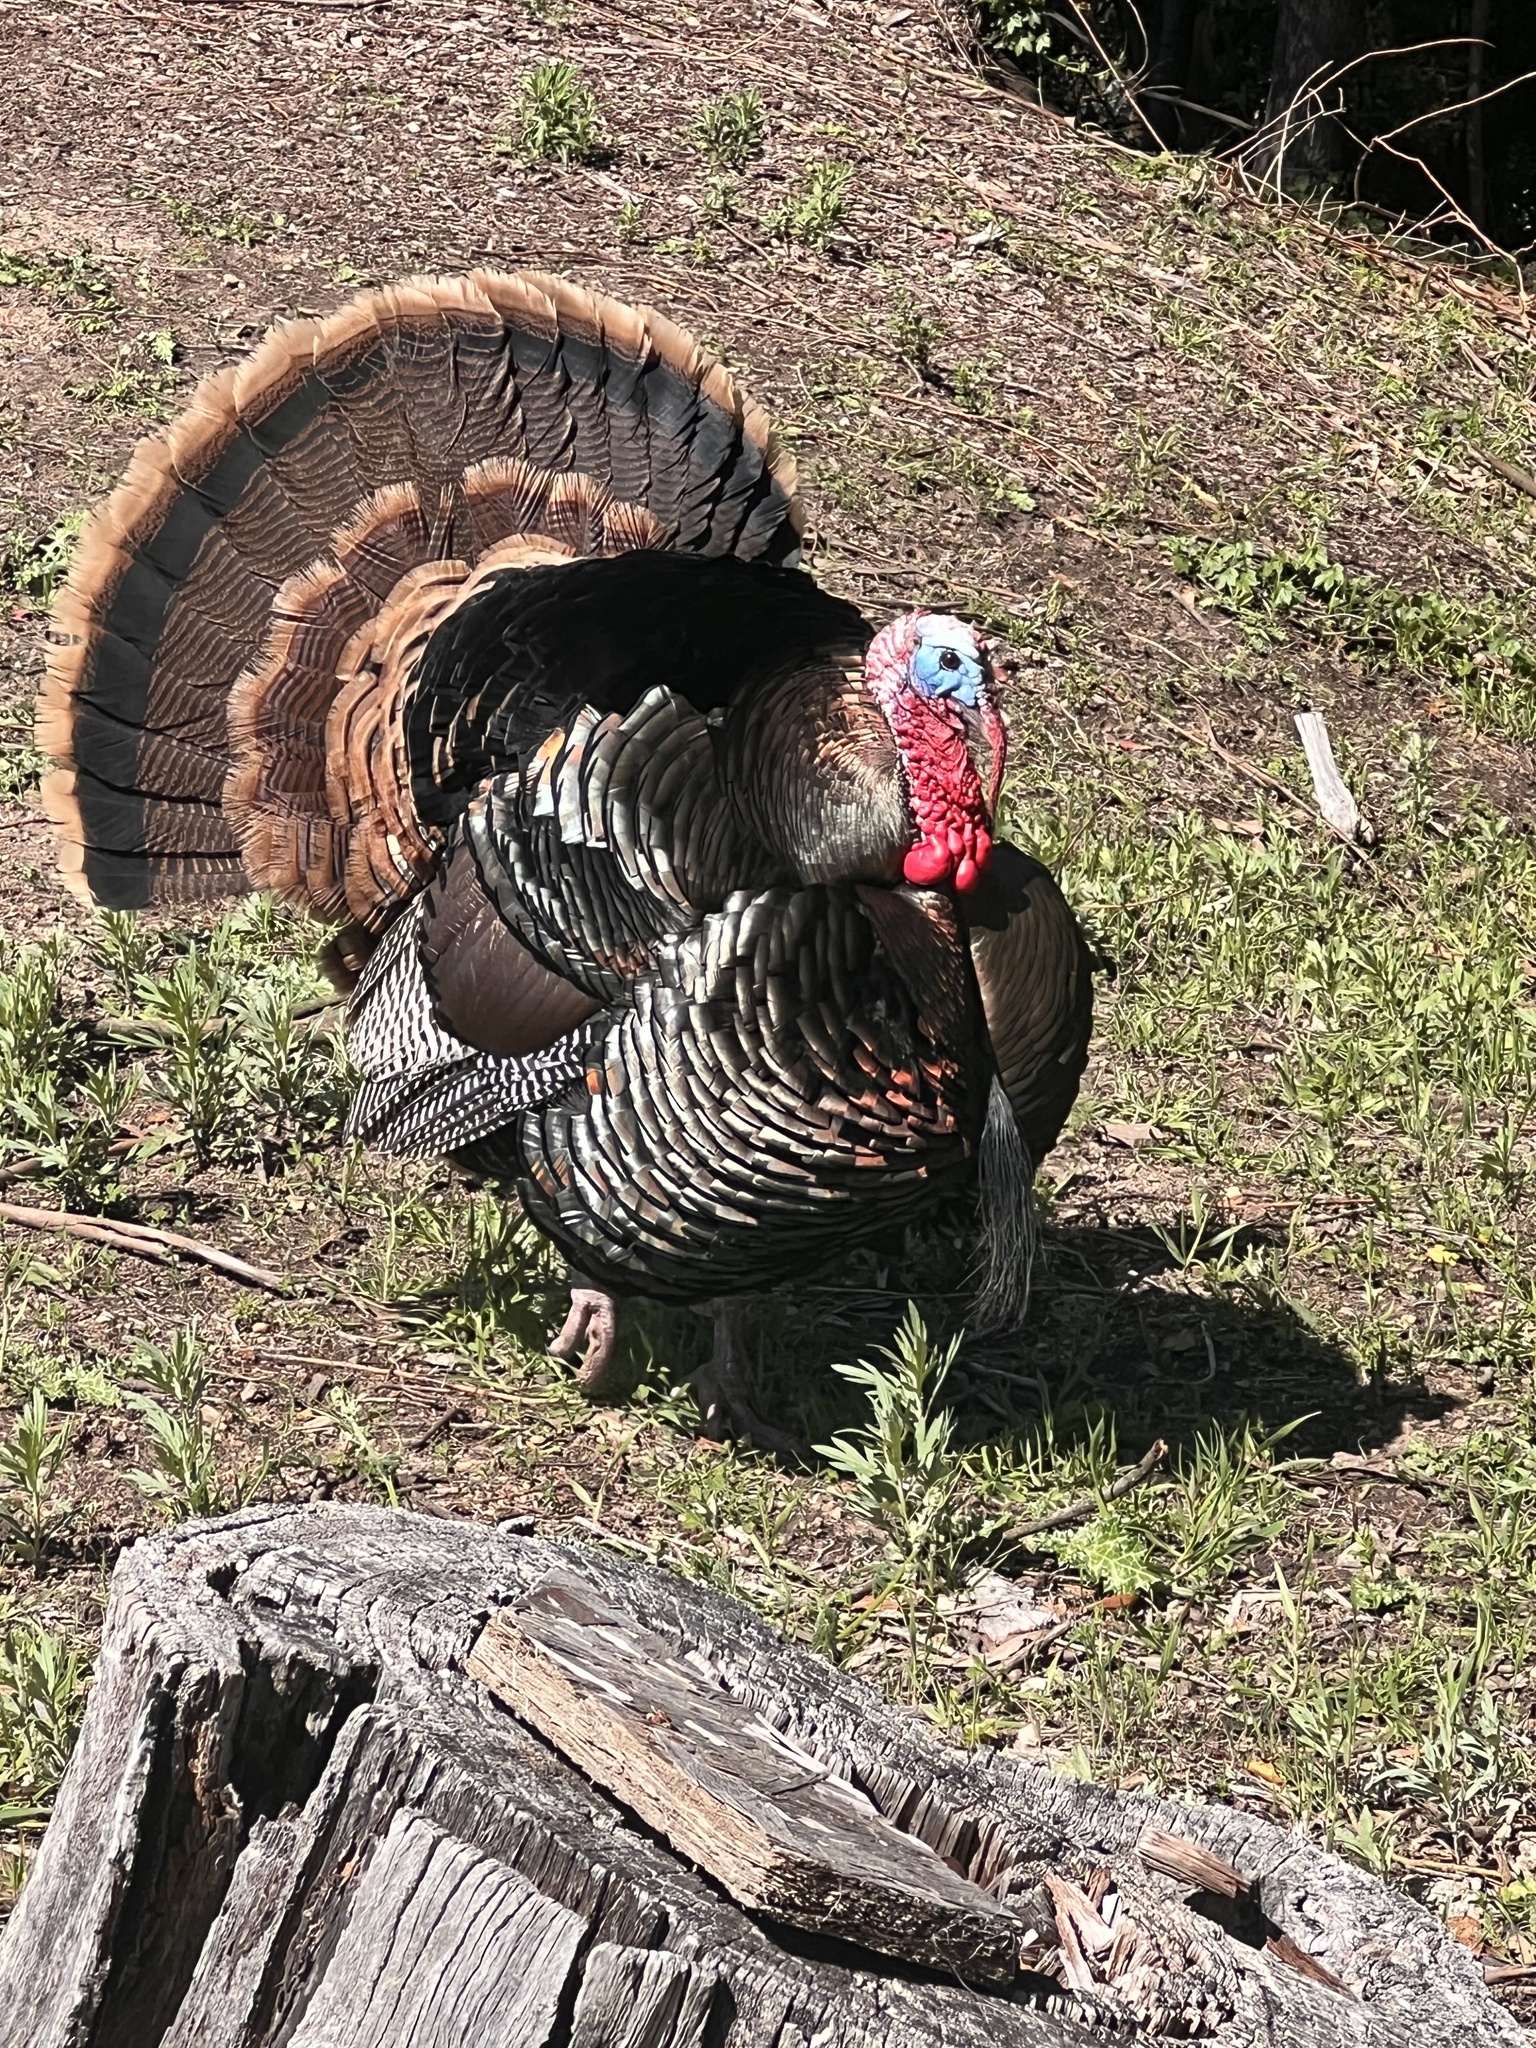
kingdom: Animalia
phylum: Chordata
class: Aves
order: Galliformes
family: Phasianidae
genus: Meleagris
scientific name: Meleagris gallopavo
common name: Wild turkey
